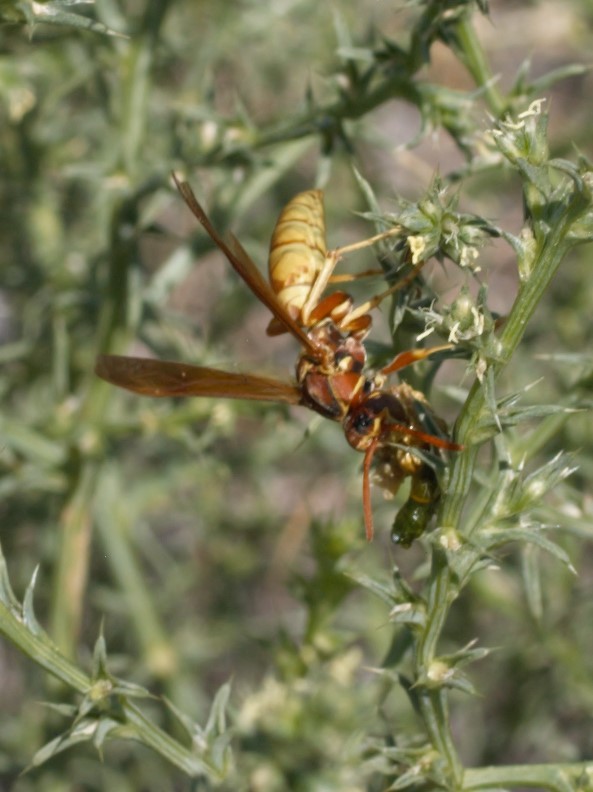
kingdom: Animalia
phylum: Arthropoda
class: Insecta
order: Hymenoptera
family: Eumenidae
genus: Polistes
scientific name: Polistes aurifer
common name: Paper wasp
